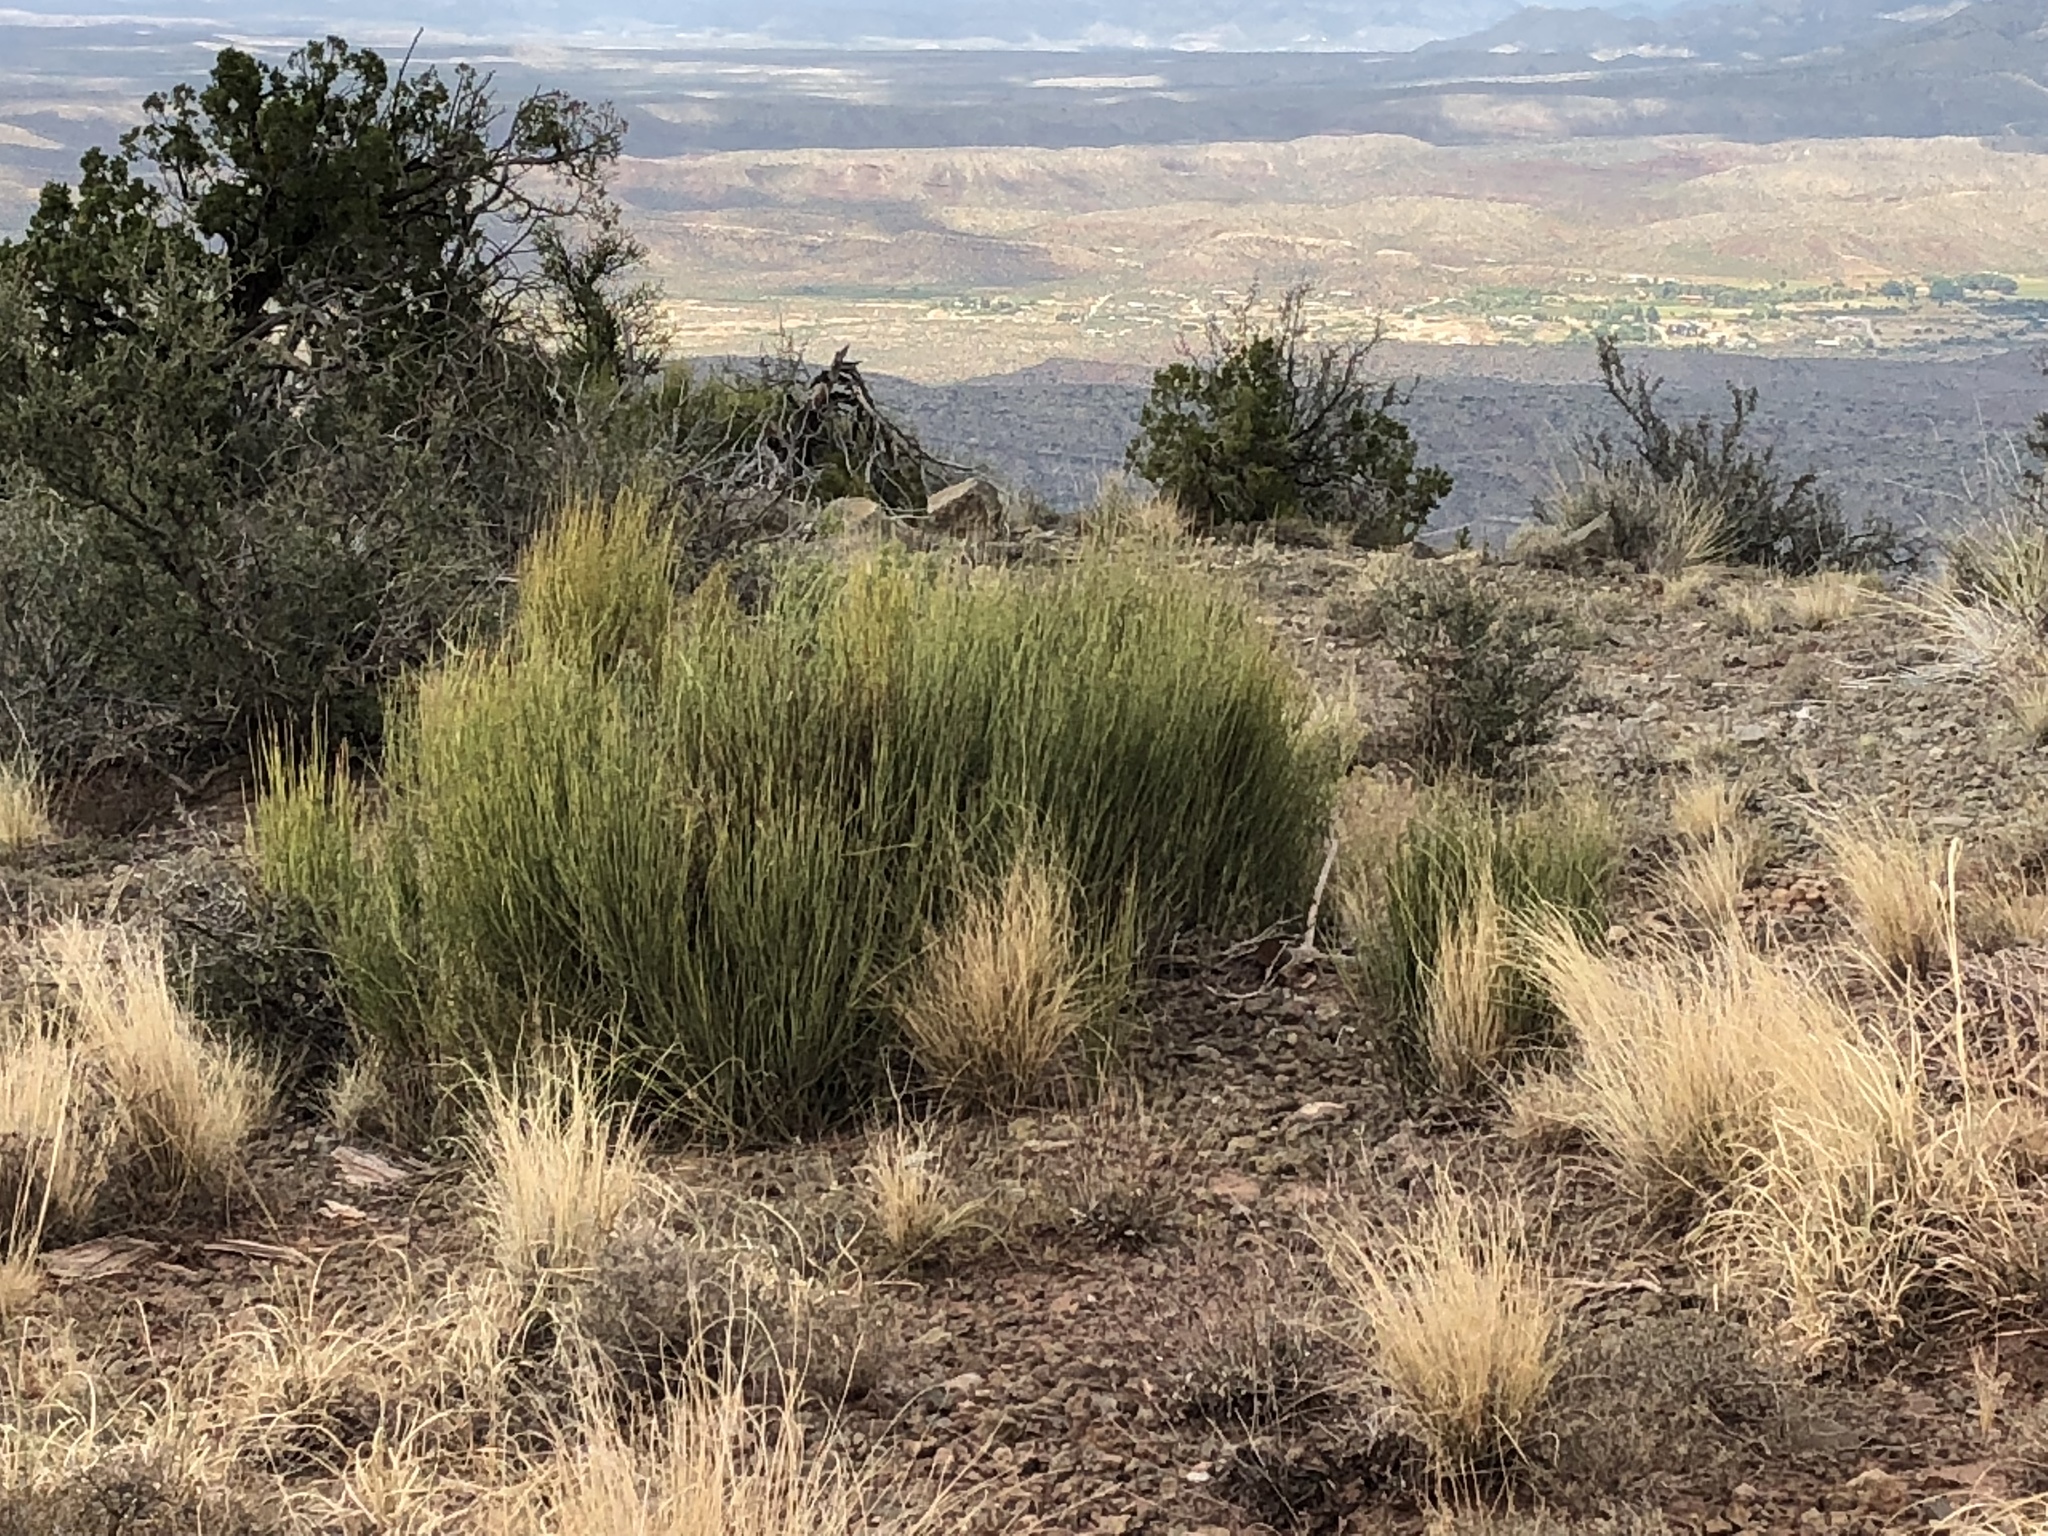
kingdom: Plantae
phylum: Tracheophyta
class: Gnetopsida
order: Ephedrales
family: Ephedraceae
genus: Ephedra
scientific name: Ephedra aspera
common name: Boundary ephedra
